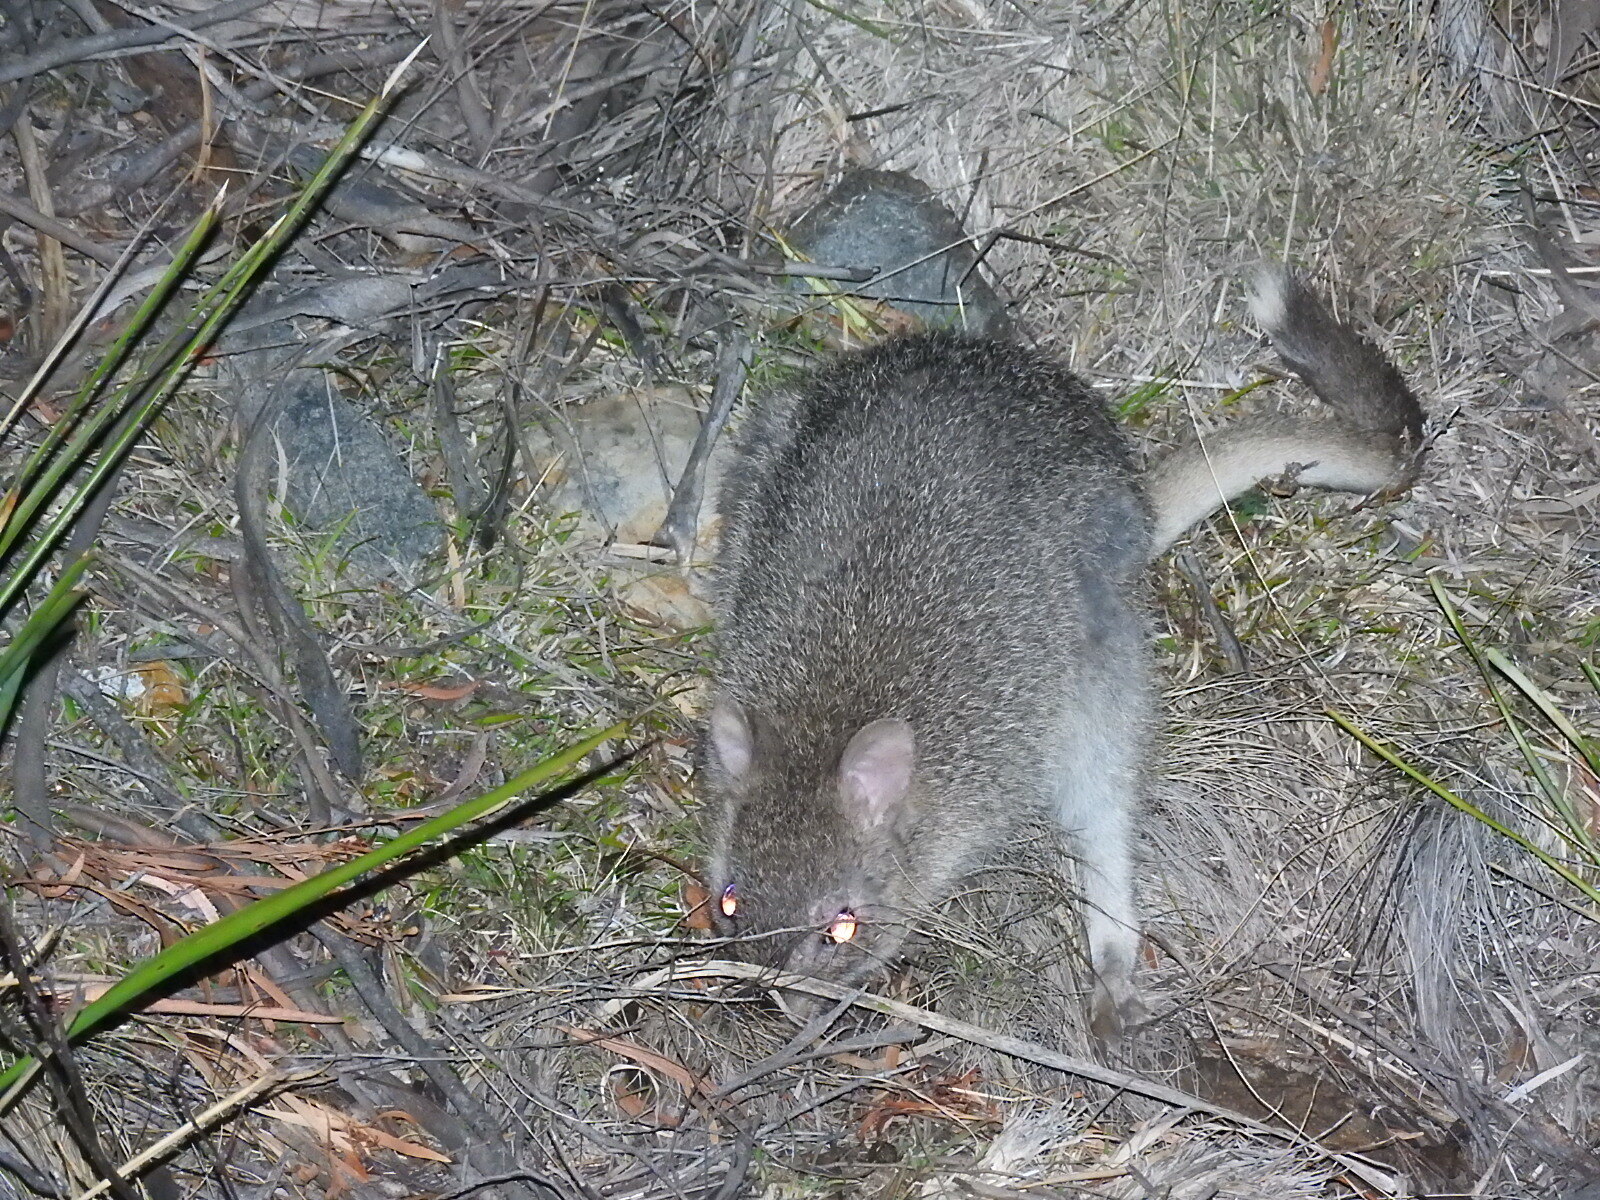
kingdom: Animalia
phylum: Chordata
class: Mammalia
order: Diprotodontia
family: Potoroidae
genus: Bettongia
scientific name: Bettongia gaimardi
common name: Eastern bettong
